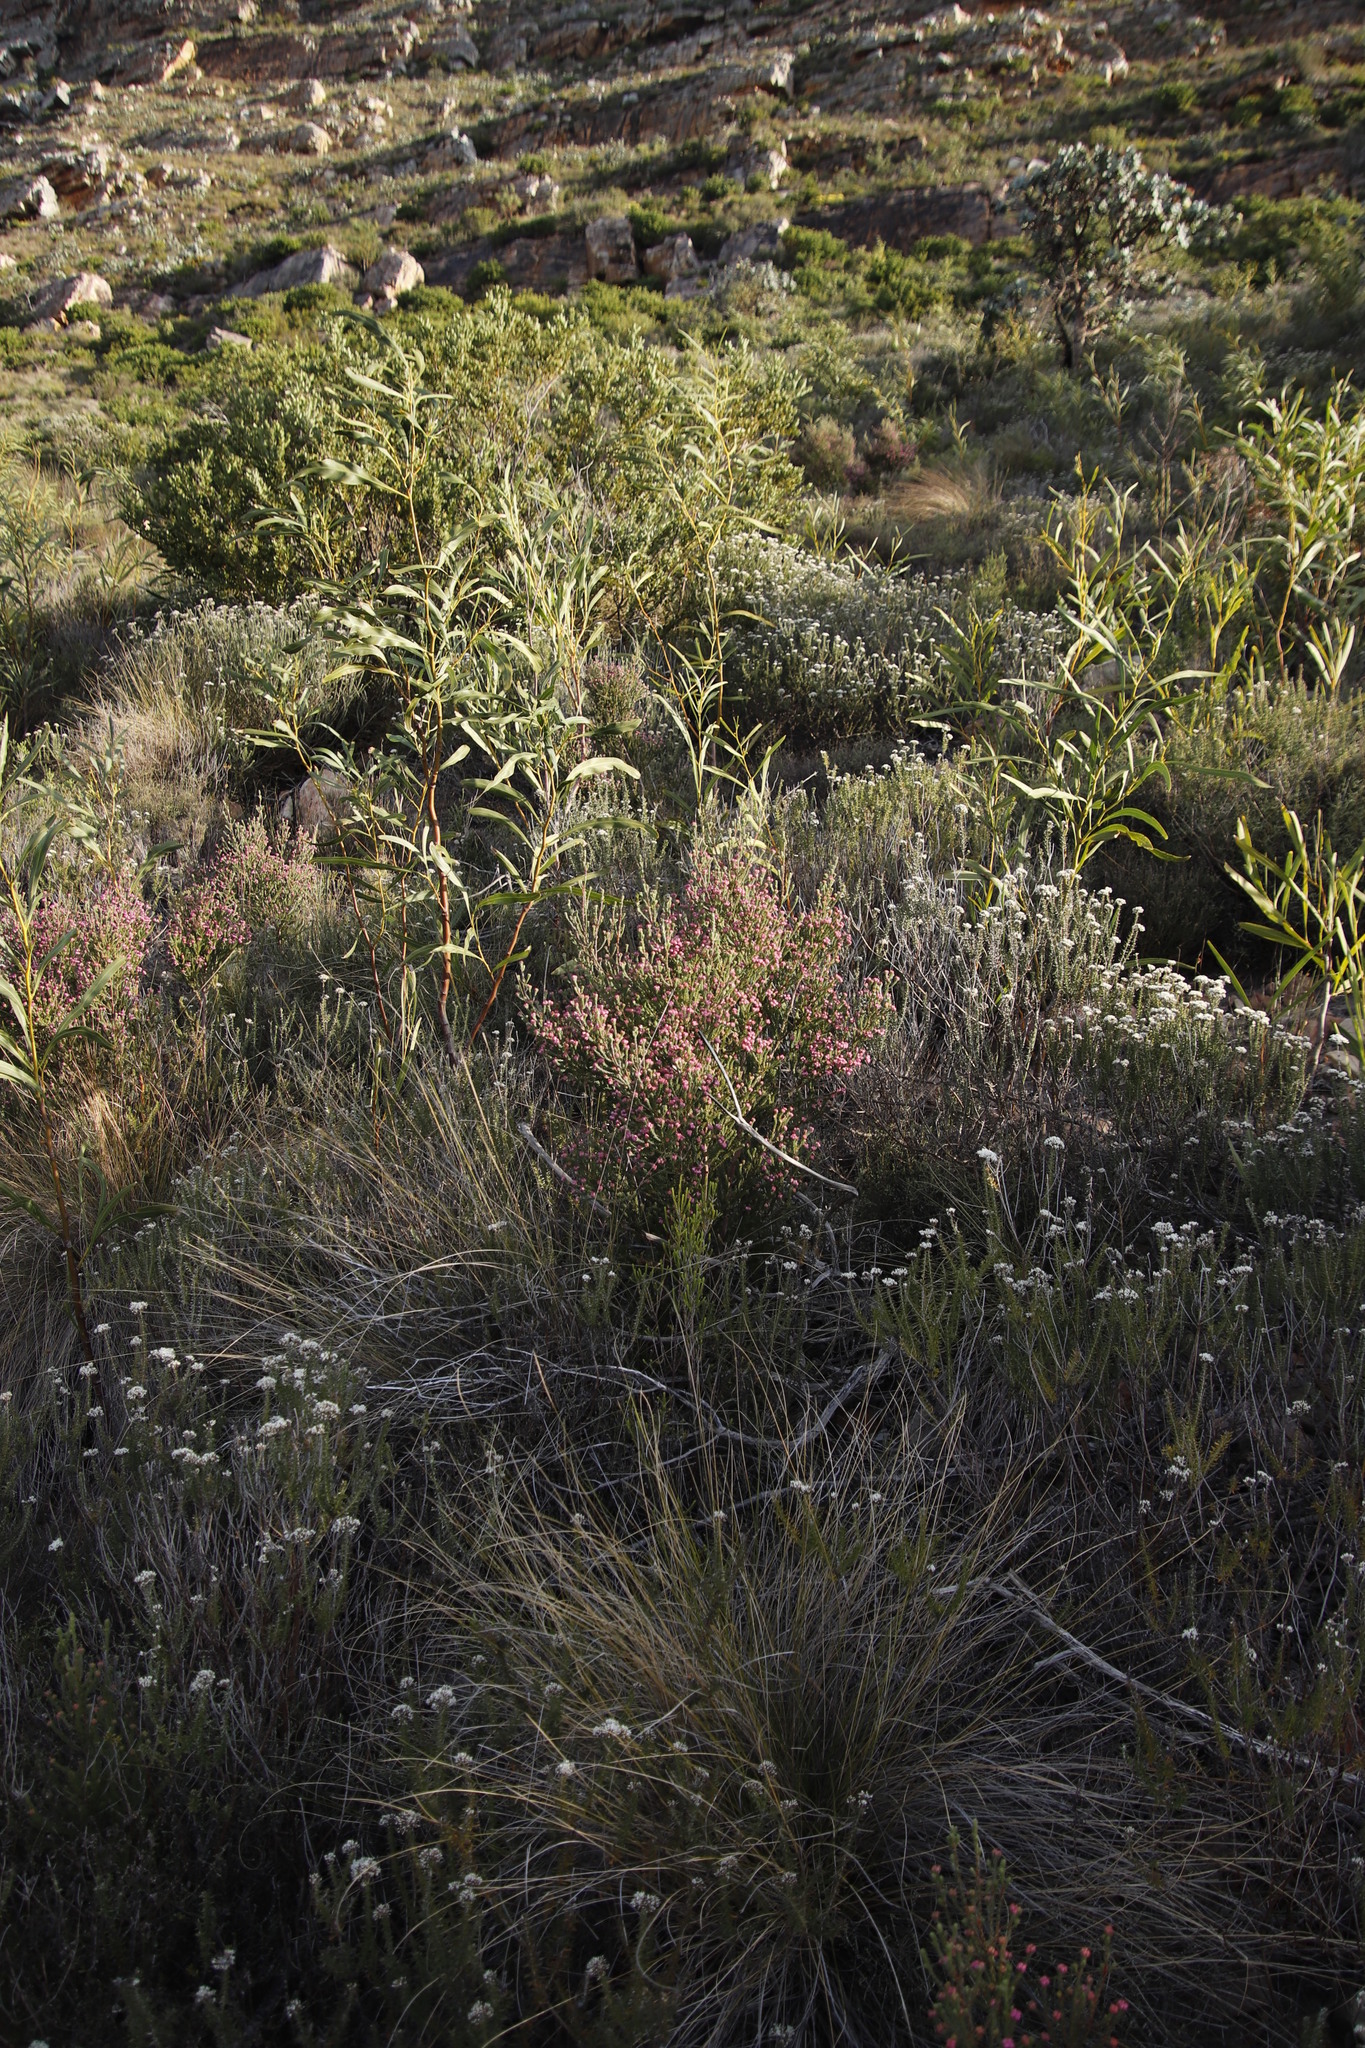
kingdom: Plantae
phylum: Tracheophyta
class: Magnoliopsida
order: Ericales
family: Ericaceae
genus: Erica
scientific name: Erica baccans
